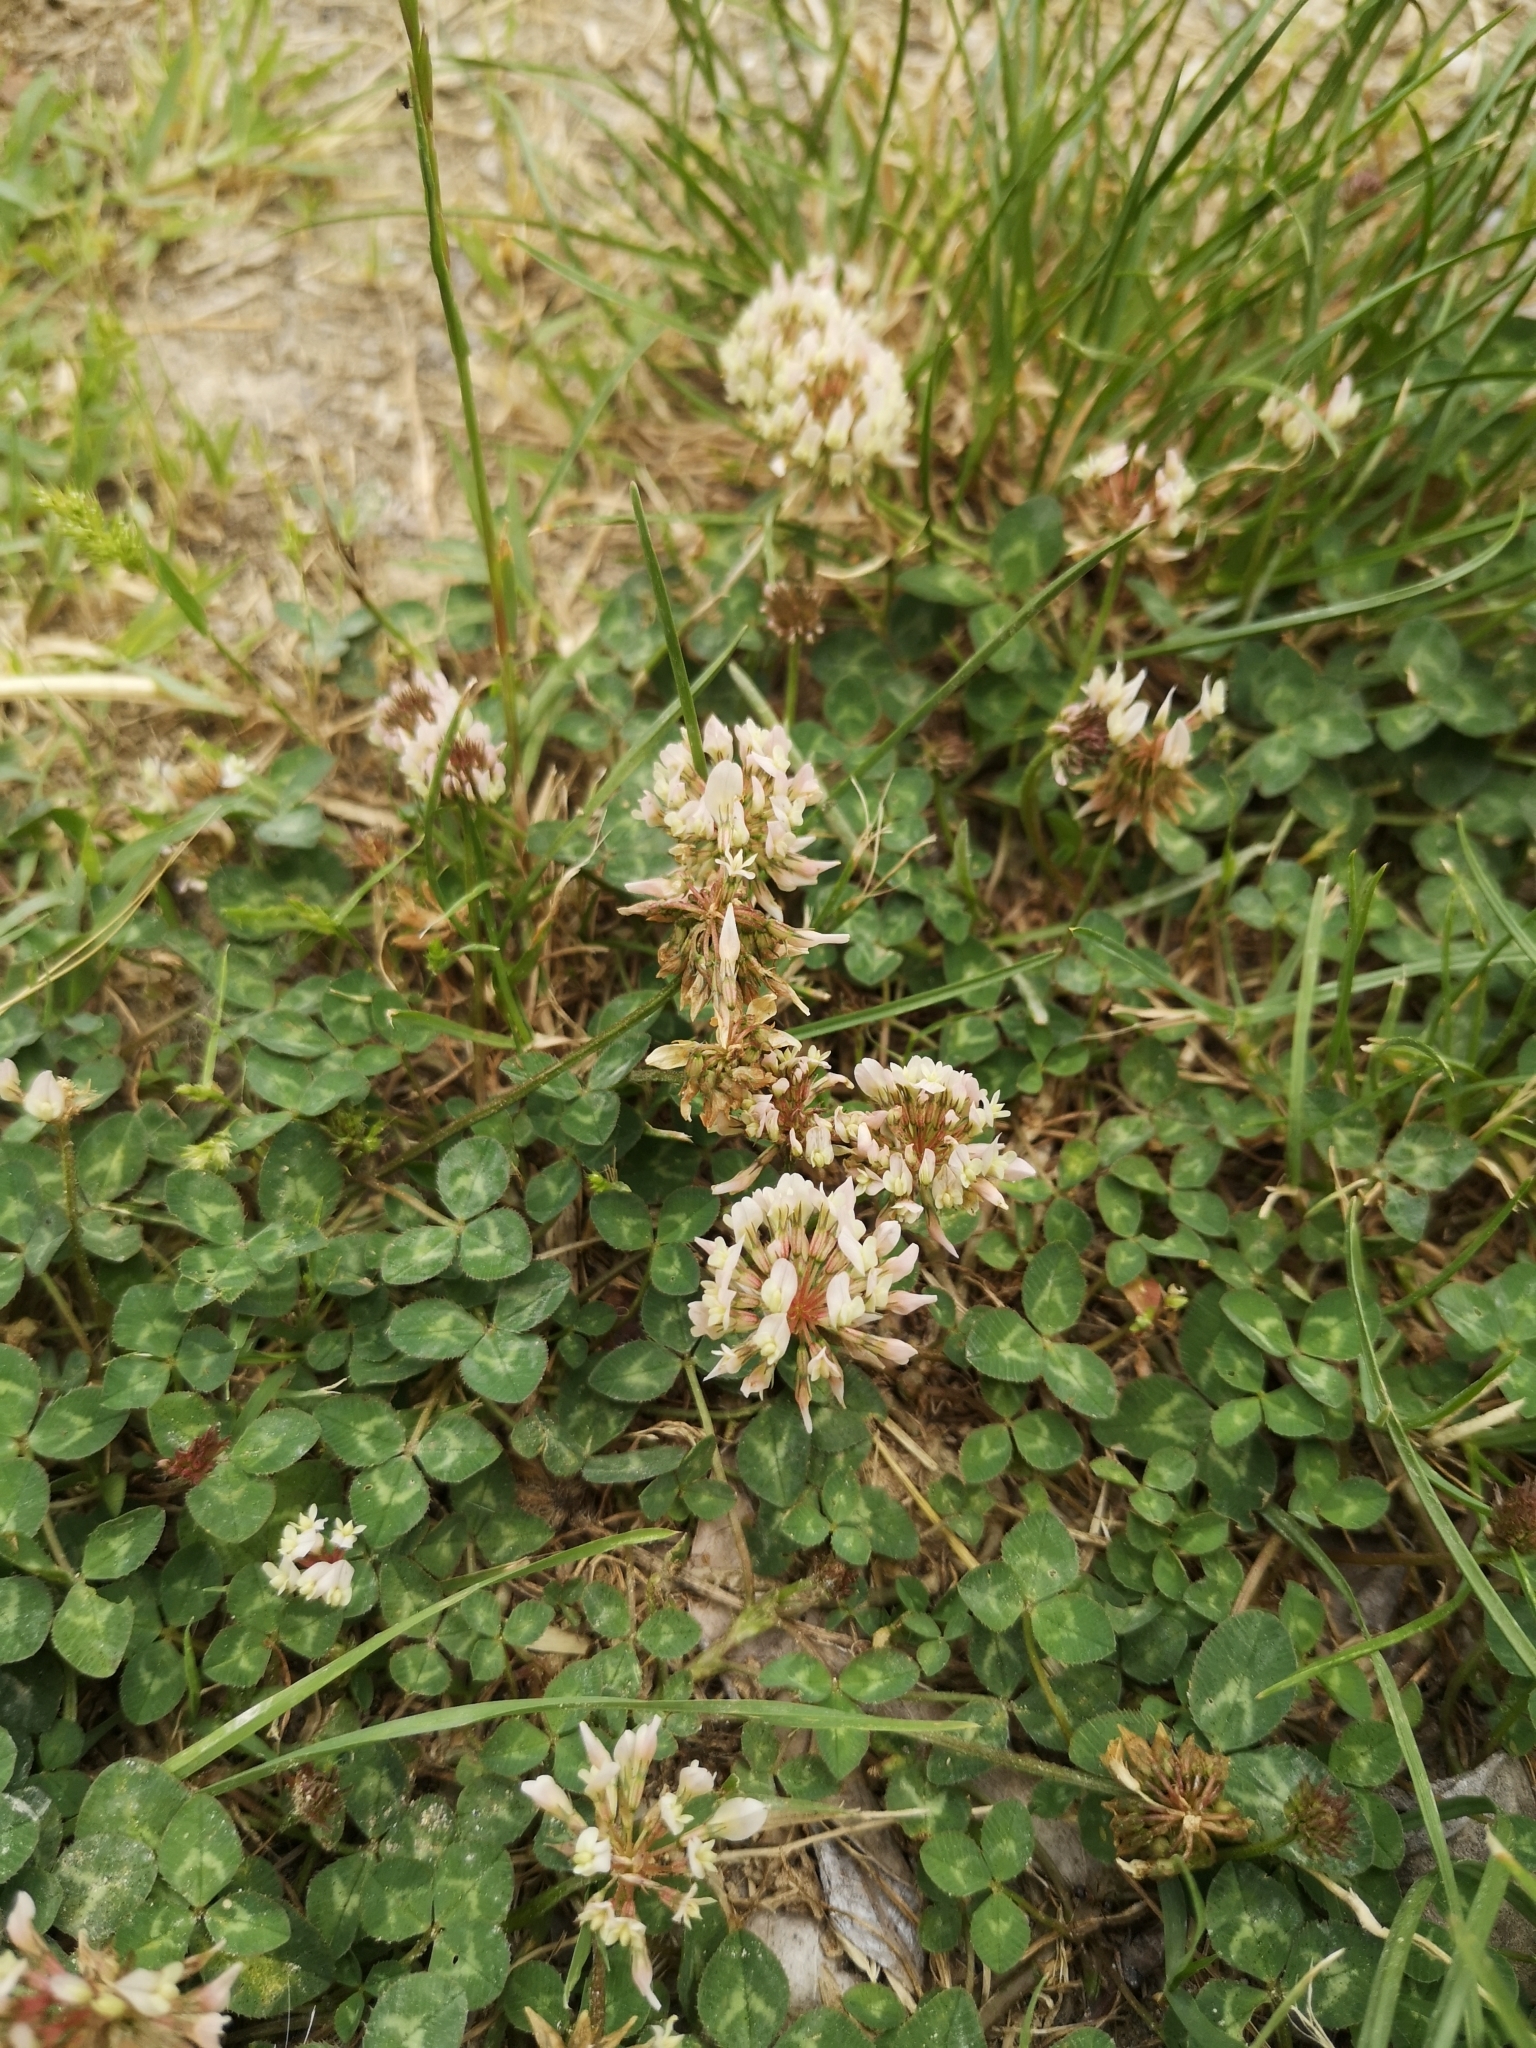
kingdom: Plantae
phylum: Tracheophyta
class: Magnoliopsida
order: Fabales
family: Fabaceae
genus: Trifolium
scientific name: Trifolium repens
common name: White clover
